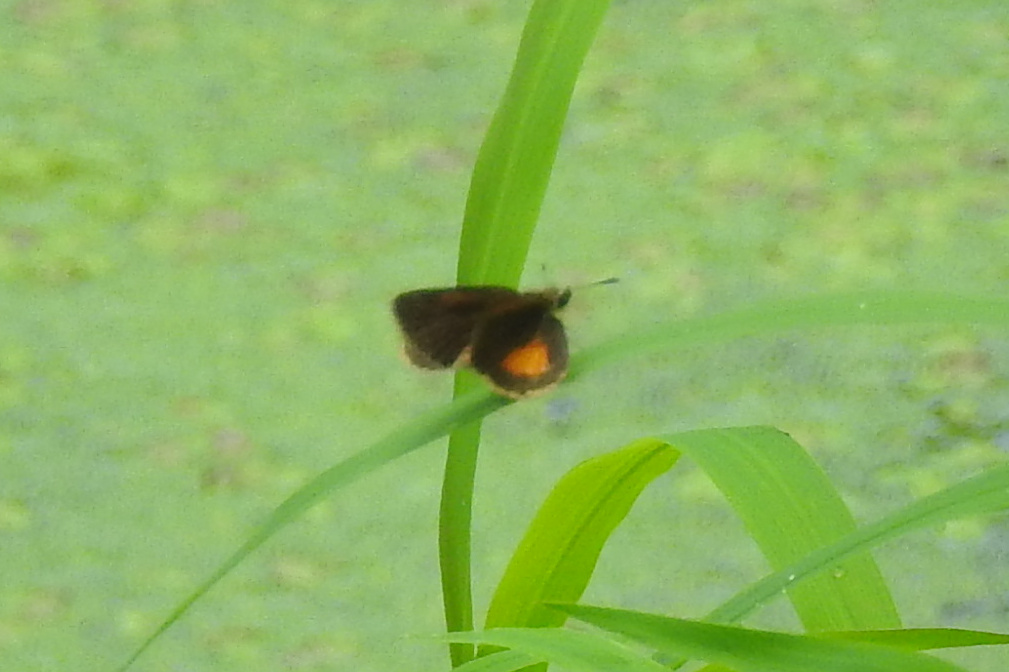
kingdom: Animalia
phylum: Arthropoda
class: Insecta
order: Lepidoptera
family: Hesperiidae
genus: Ancyloxypha
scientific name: Ancyloxypha numitor
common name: Least skipper
